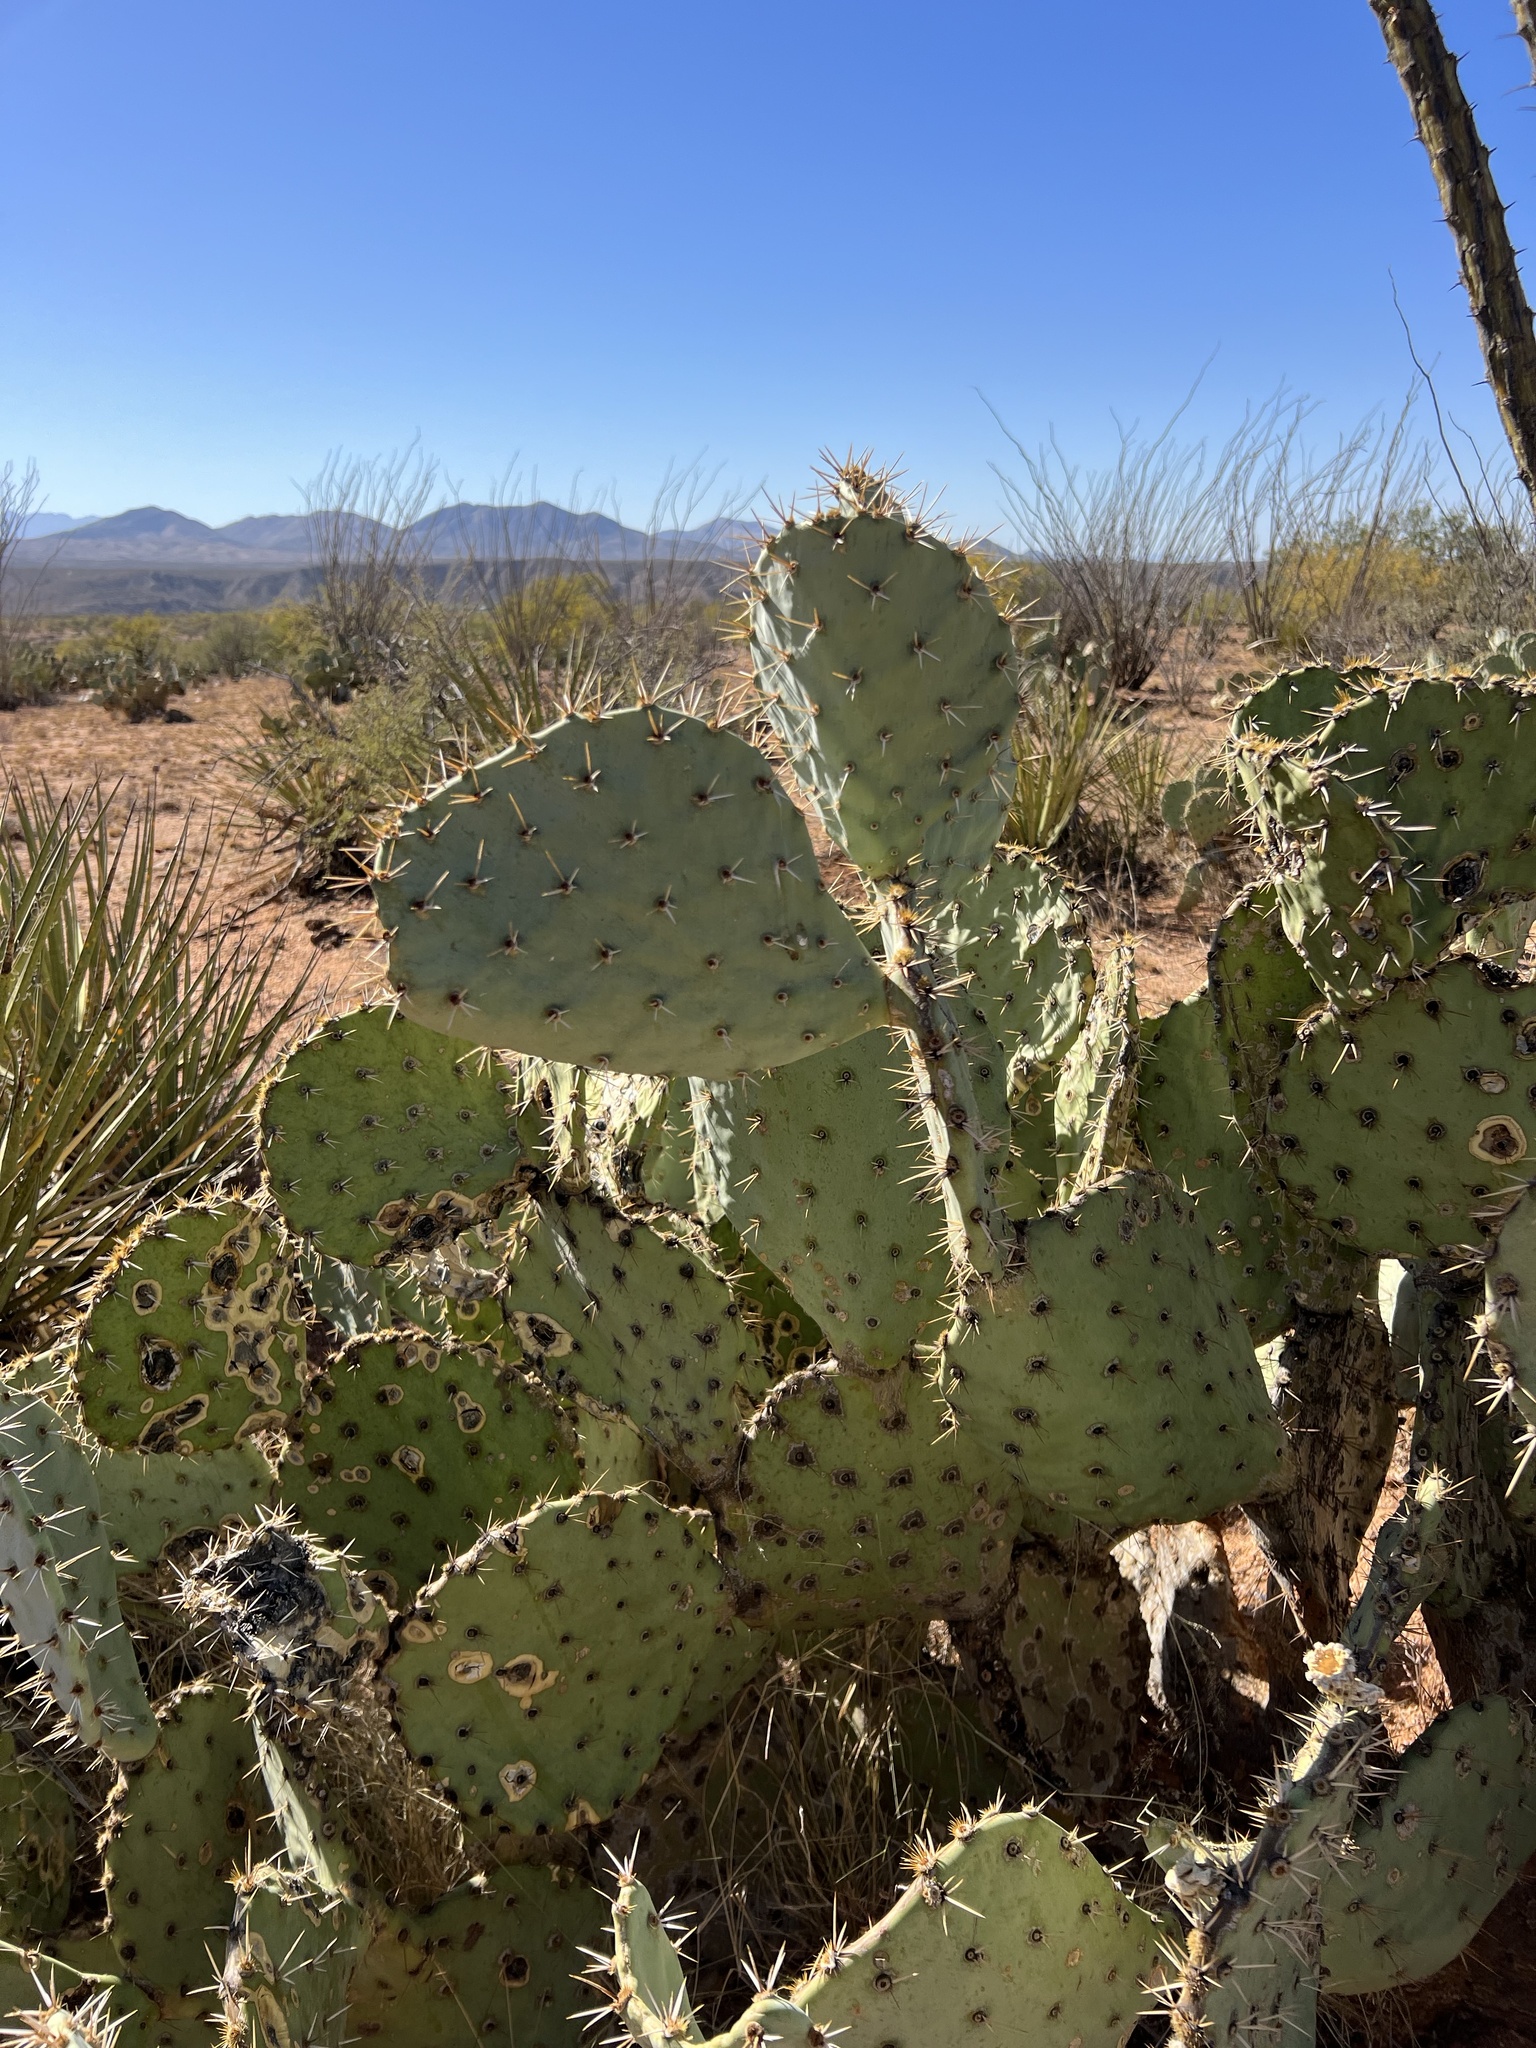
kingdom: Plantae
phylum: Tracheophyta
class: Magnoliopsida
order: Caryophyllales
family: Cactaceae
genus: Opuntia
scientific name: Opuntia engelmannii
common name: Cactus-apple
